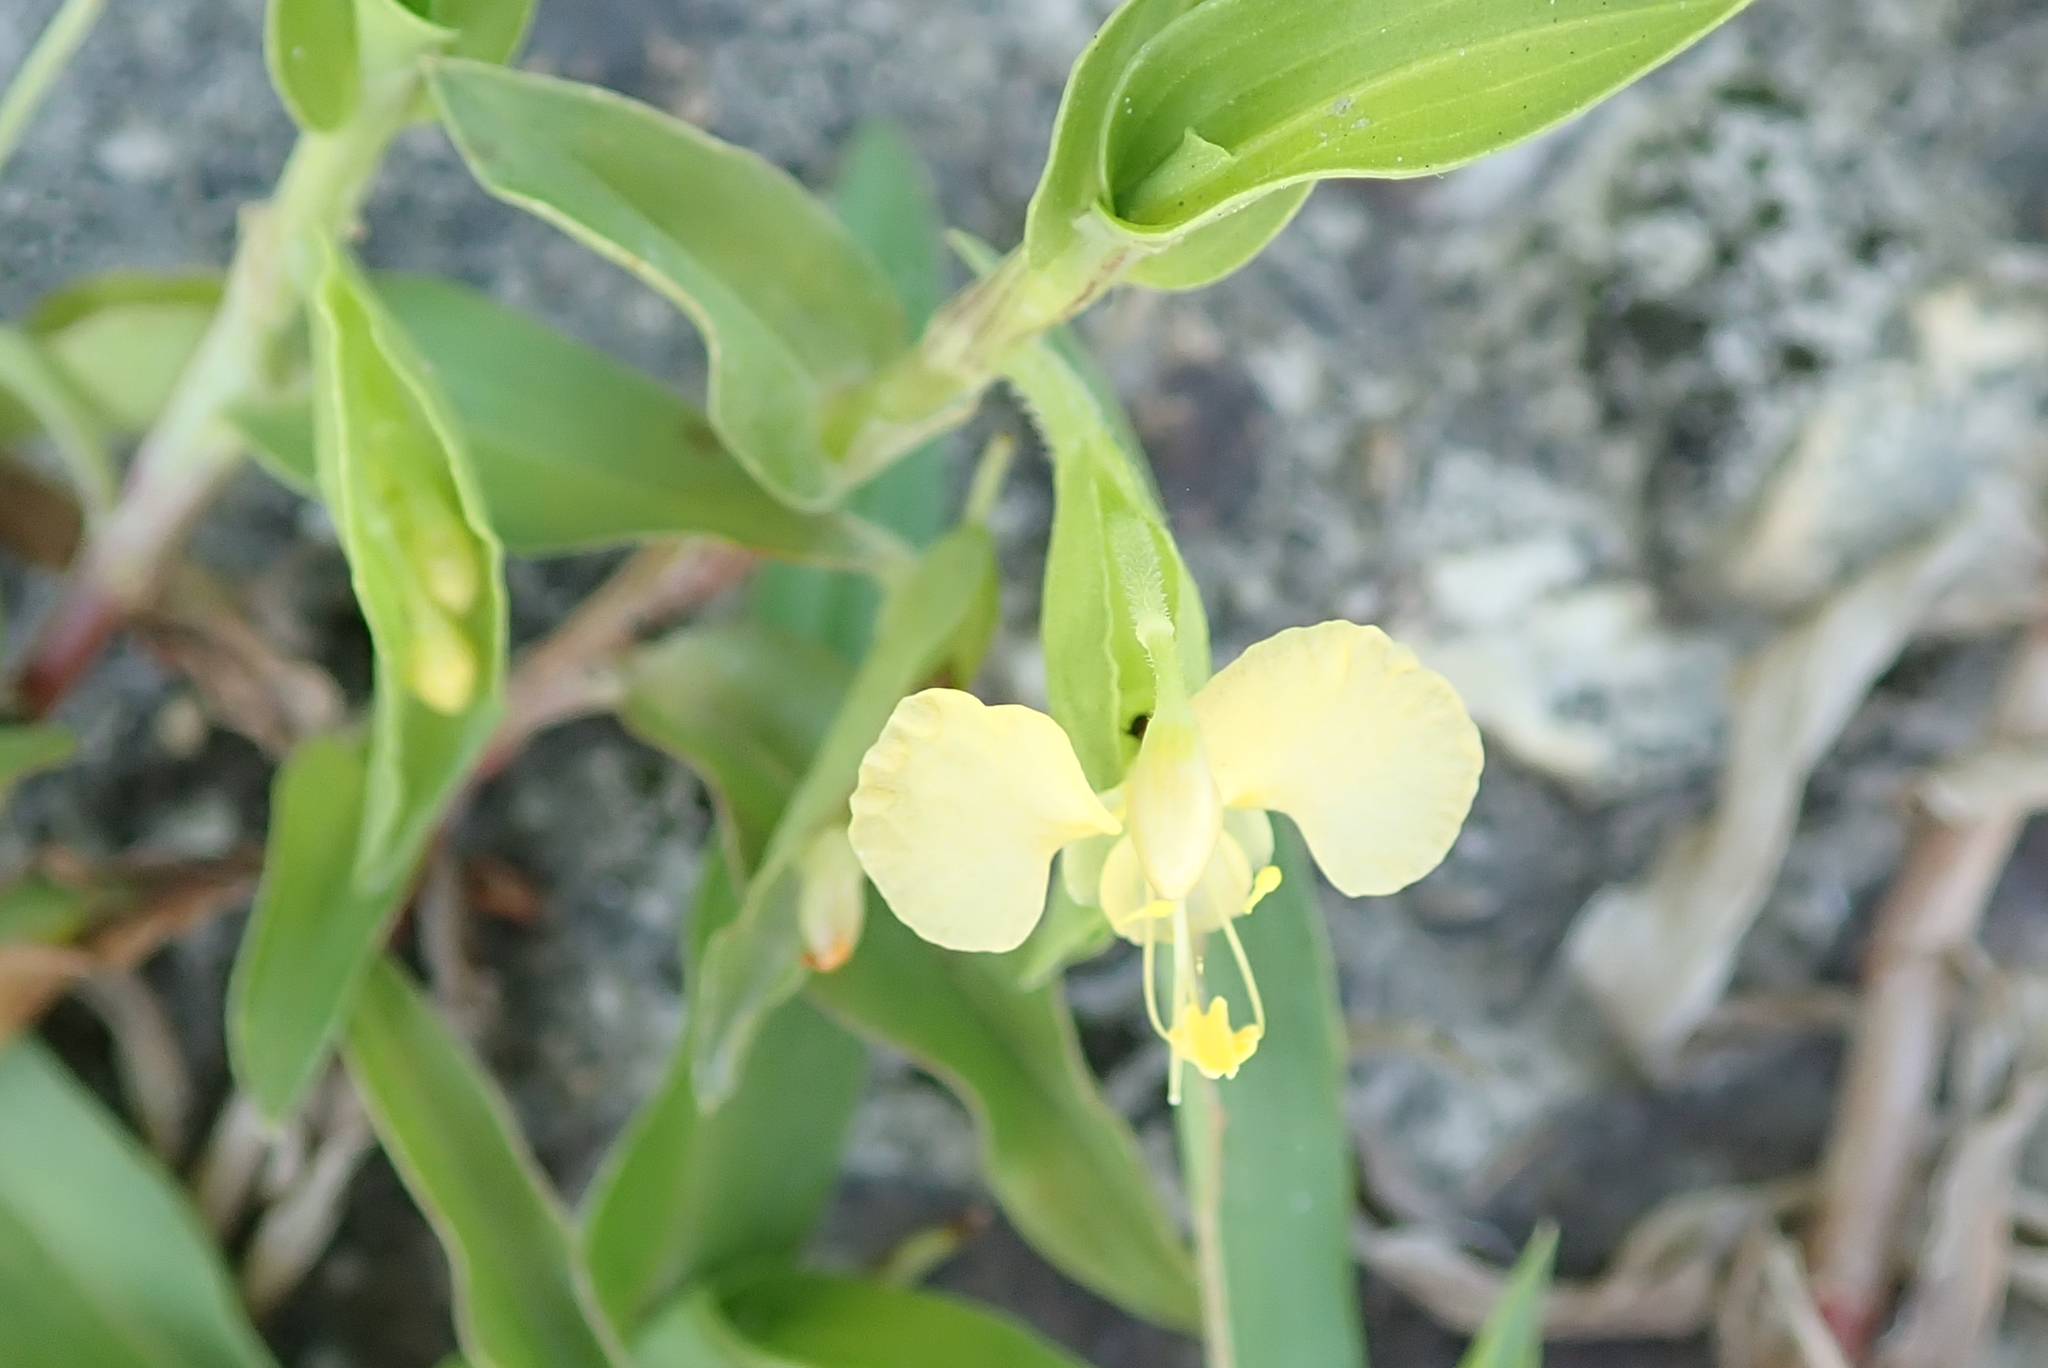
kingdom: Plantae
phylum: Tracheophyta
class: Liliopsida
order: Commelinales
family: Commelinaceae
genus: Commelina
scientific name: Commelina africana
